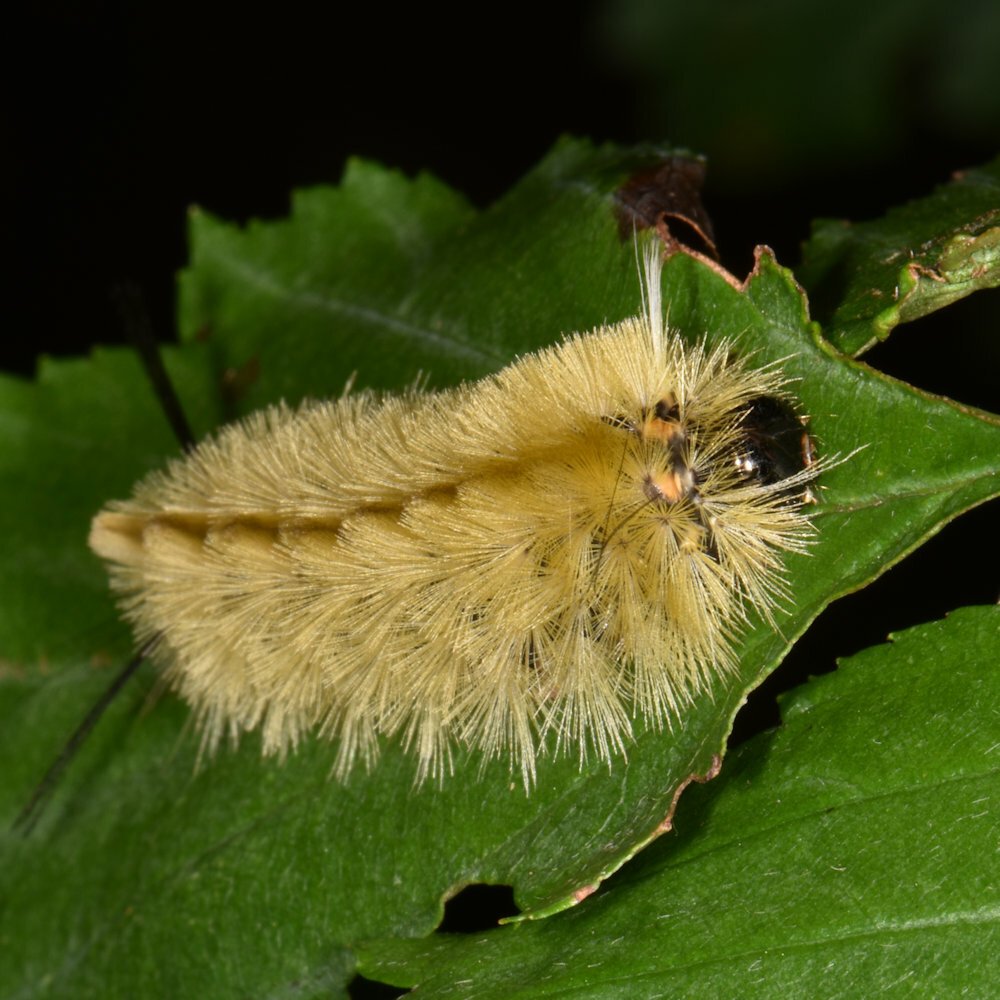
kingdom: Animalia
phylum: Arthropoda
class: Insecta
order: Lepidoptera
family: Erebidae
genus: Halysidota
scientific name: Halysidota tessellaris
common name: Banded tussock moth
